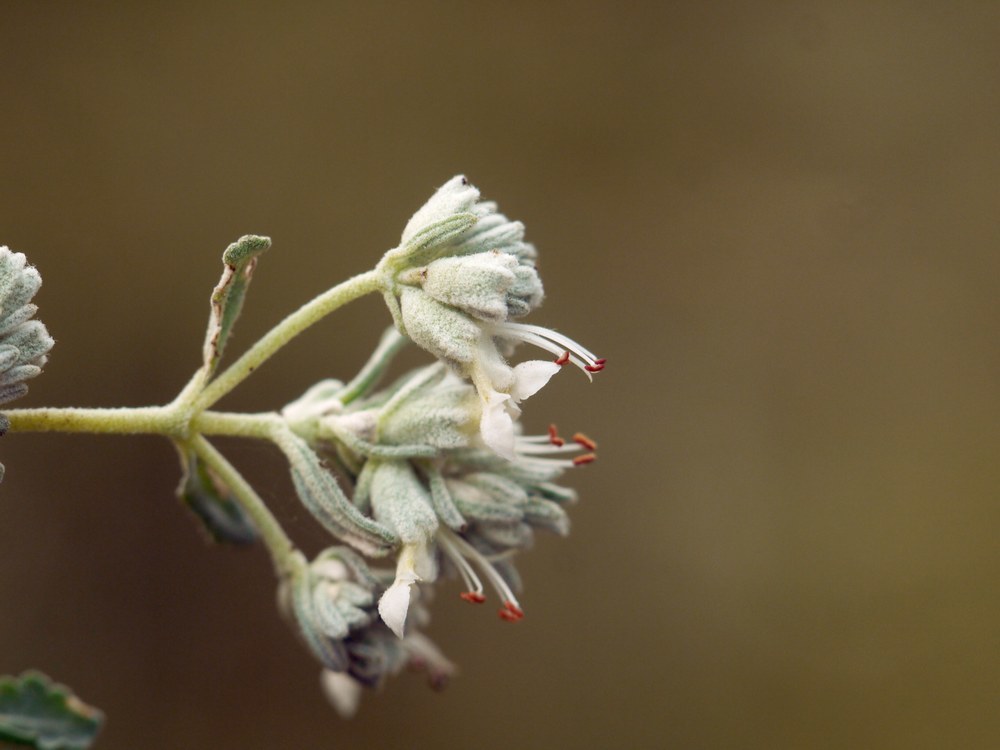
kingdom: Plantae
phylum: Tracheophyta
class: Magnoliopsida
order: Lamiales
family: Lamiaceae
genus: Teucrium
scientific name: Teucrium polium
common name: Poley
